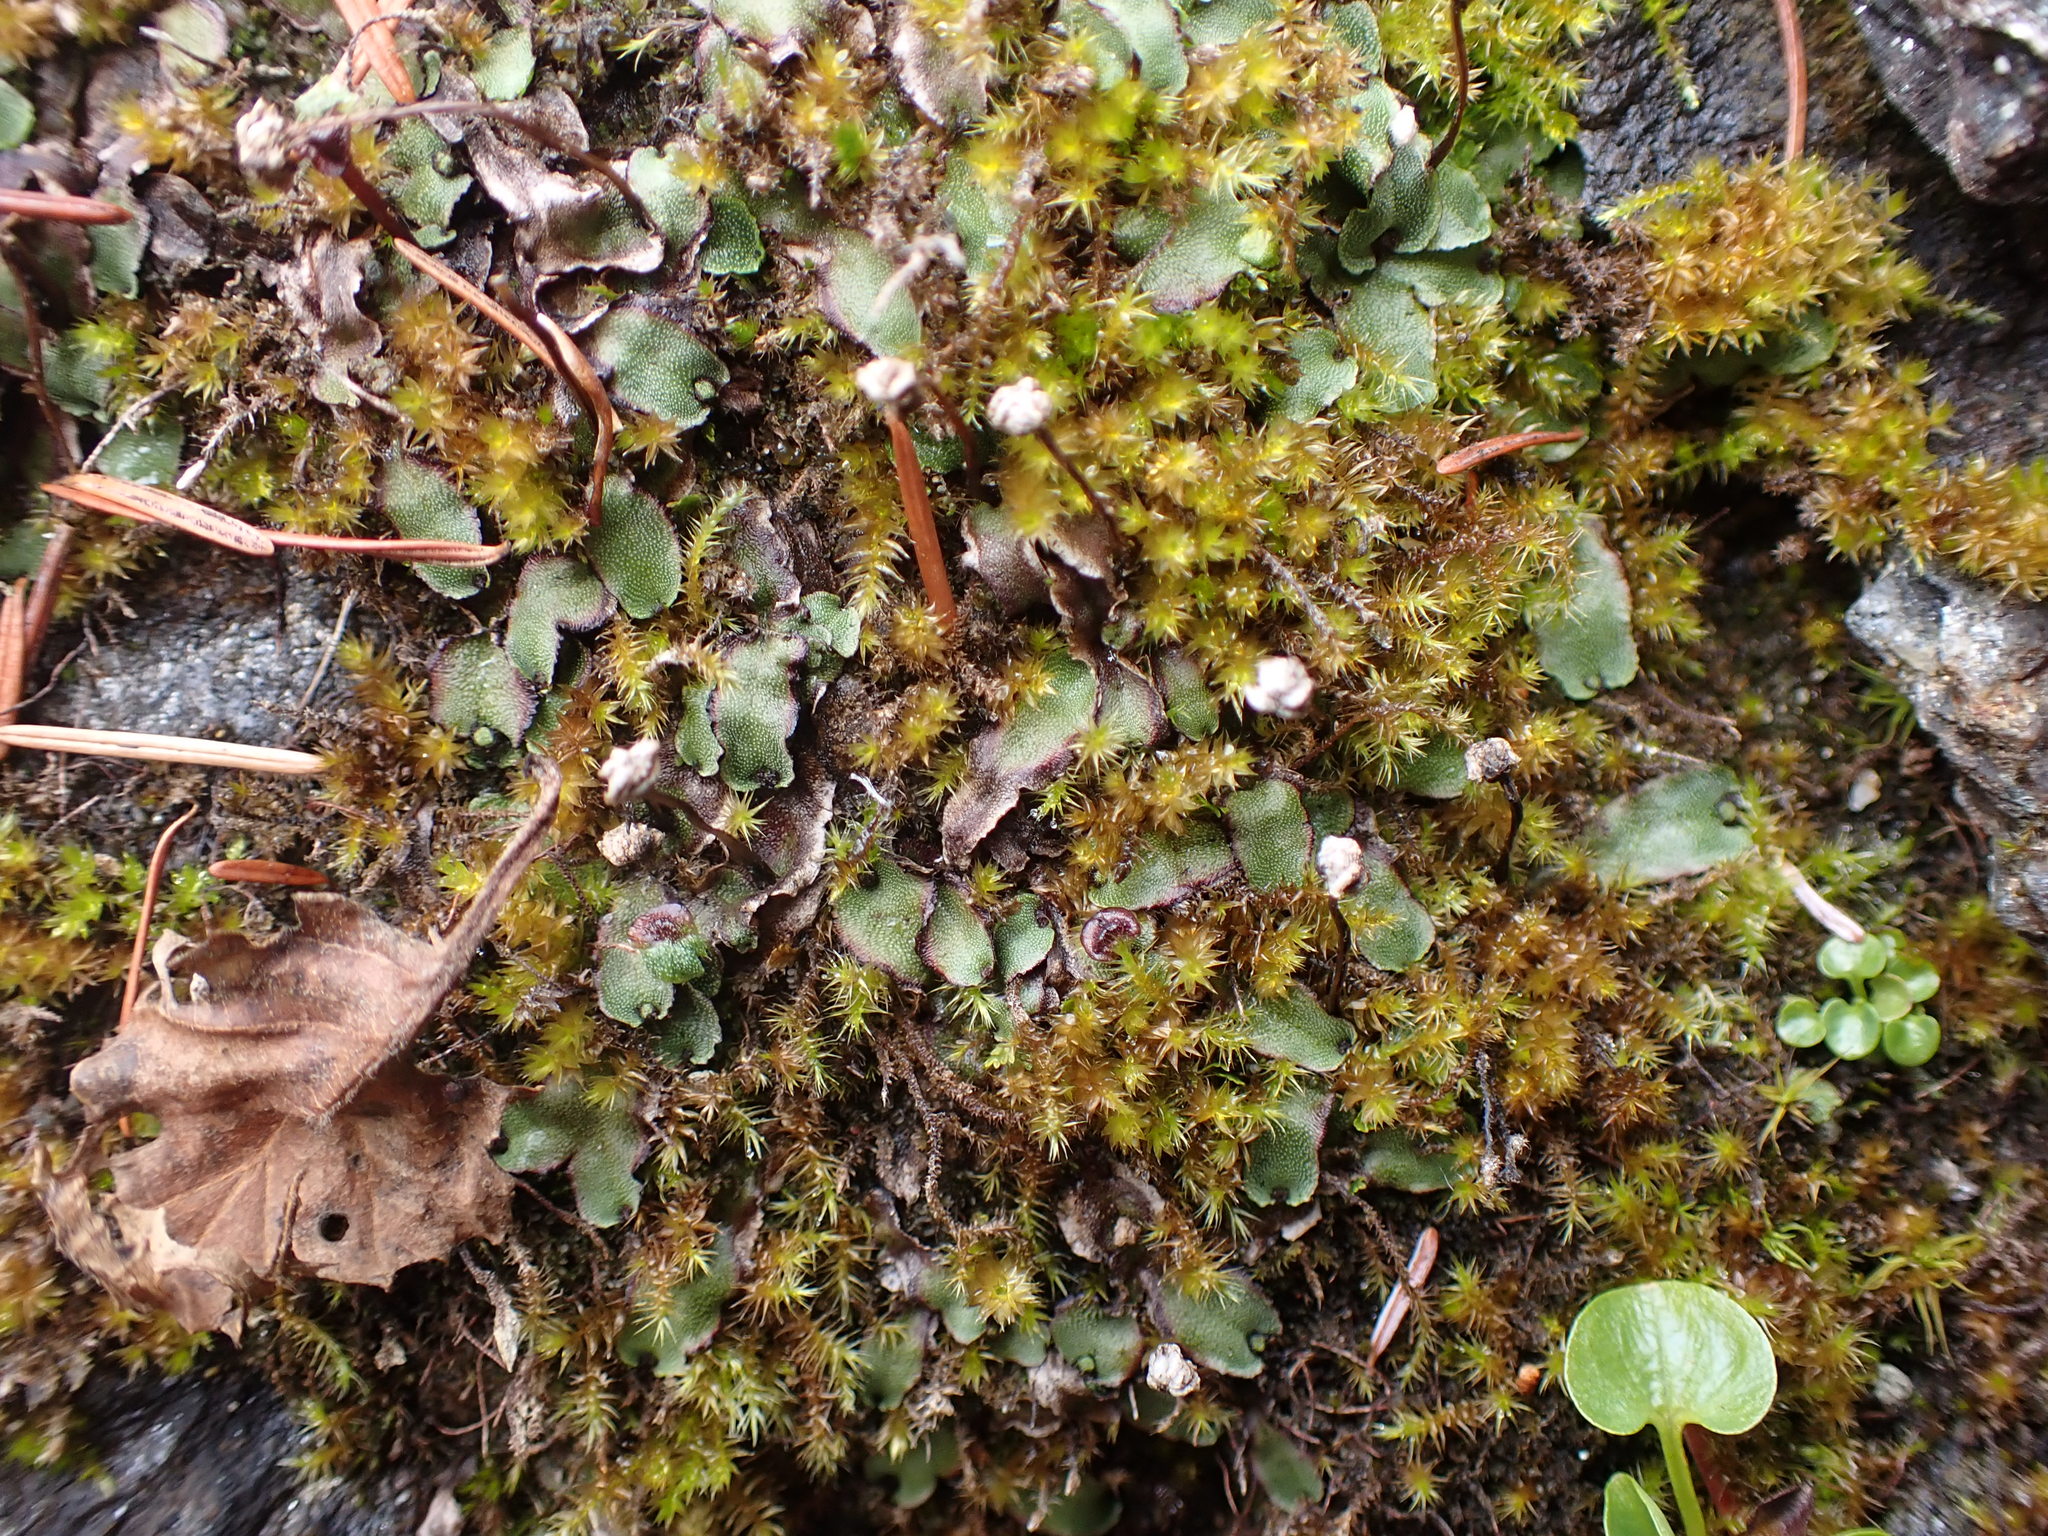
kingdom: Plantae
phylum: Marchantiophyta
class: Marchantiopsida
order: Marchantiales
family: Marchantiaceae
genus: Marchantia
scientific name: Marchantia quadrata
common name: Narrow mushroom-headed liverwort
